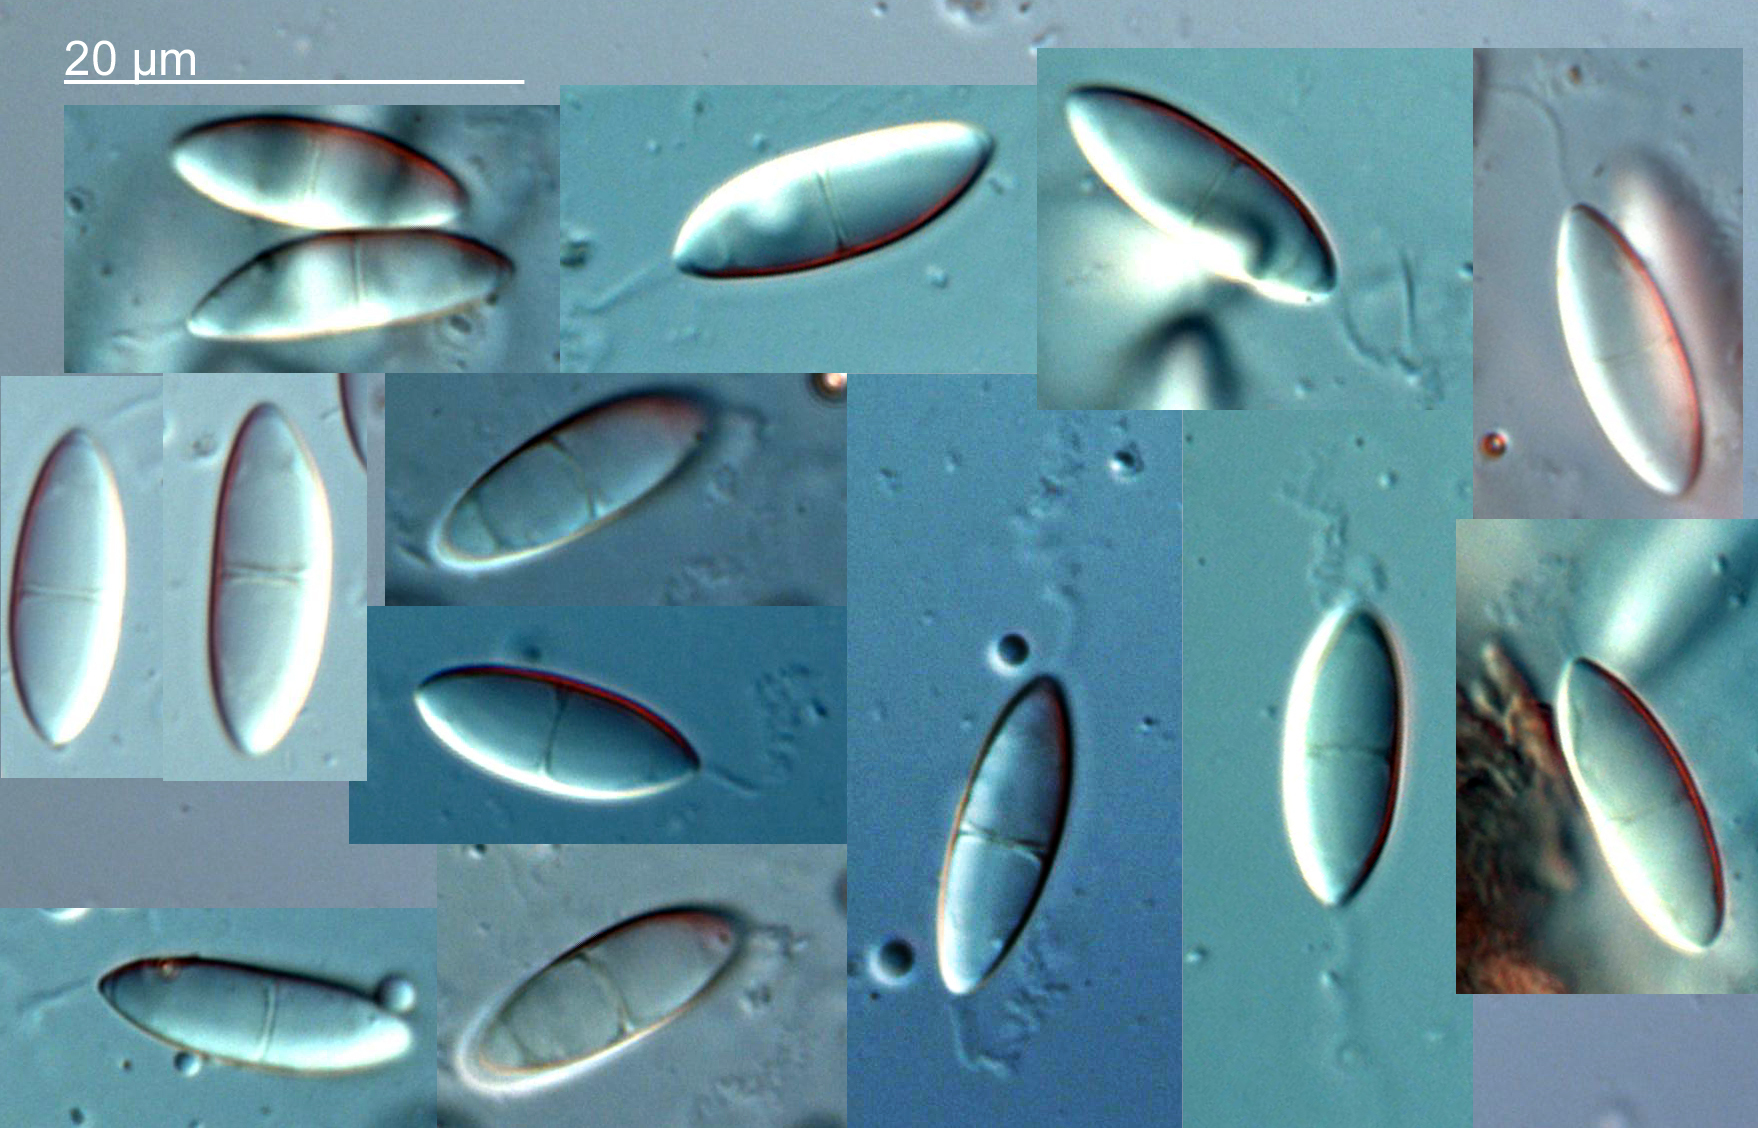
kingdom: Fungi
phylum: Ascomycota
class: Dothideomycetes
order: Pleosporales
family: Didymosphaeriaceae
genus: Montagnula
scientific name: Montagnula perforans
